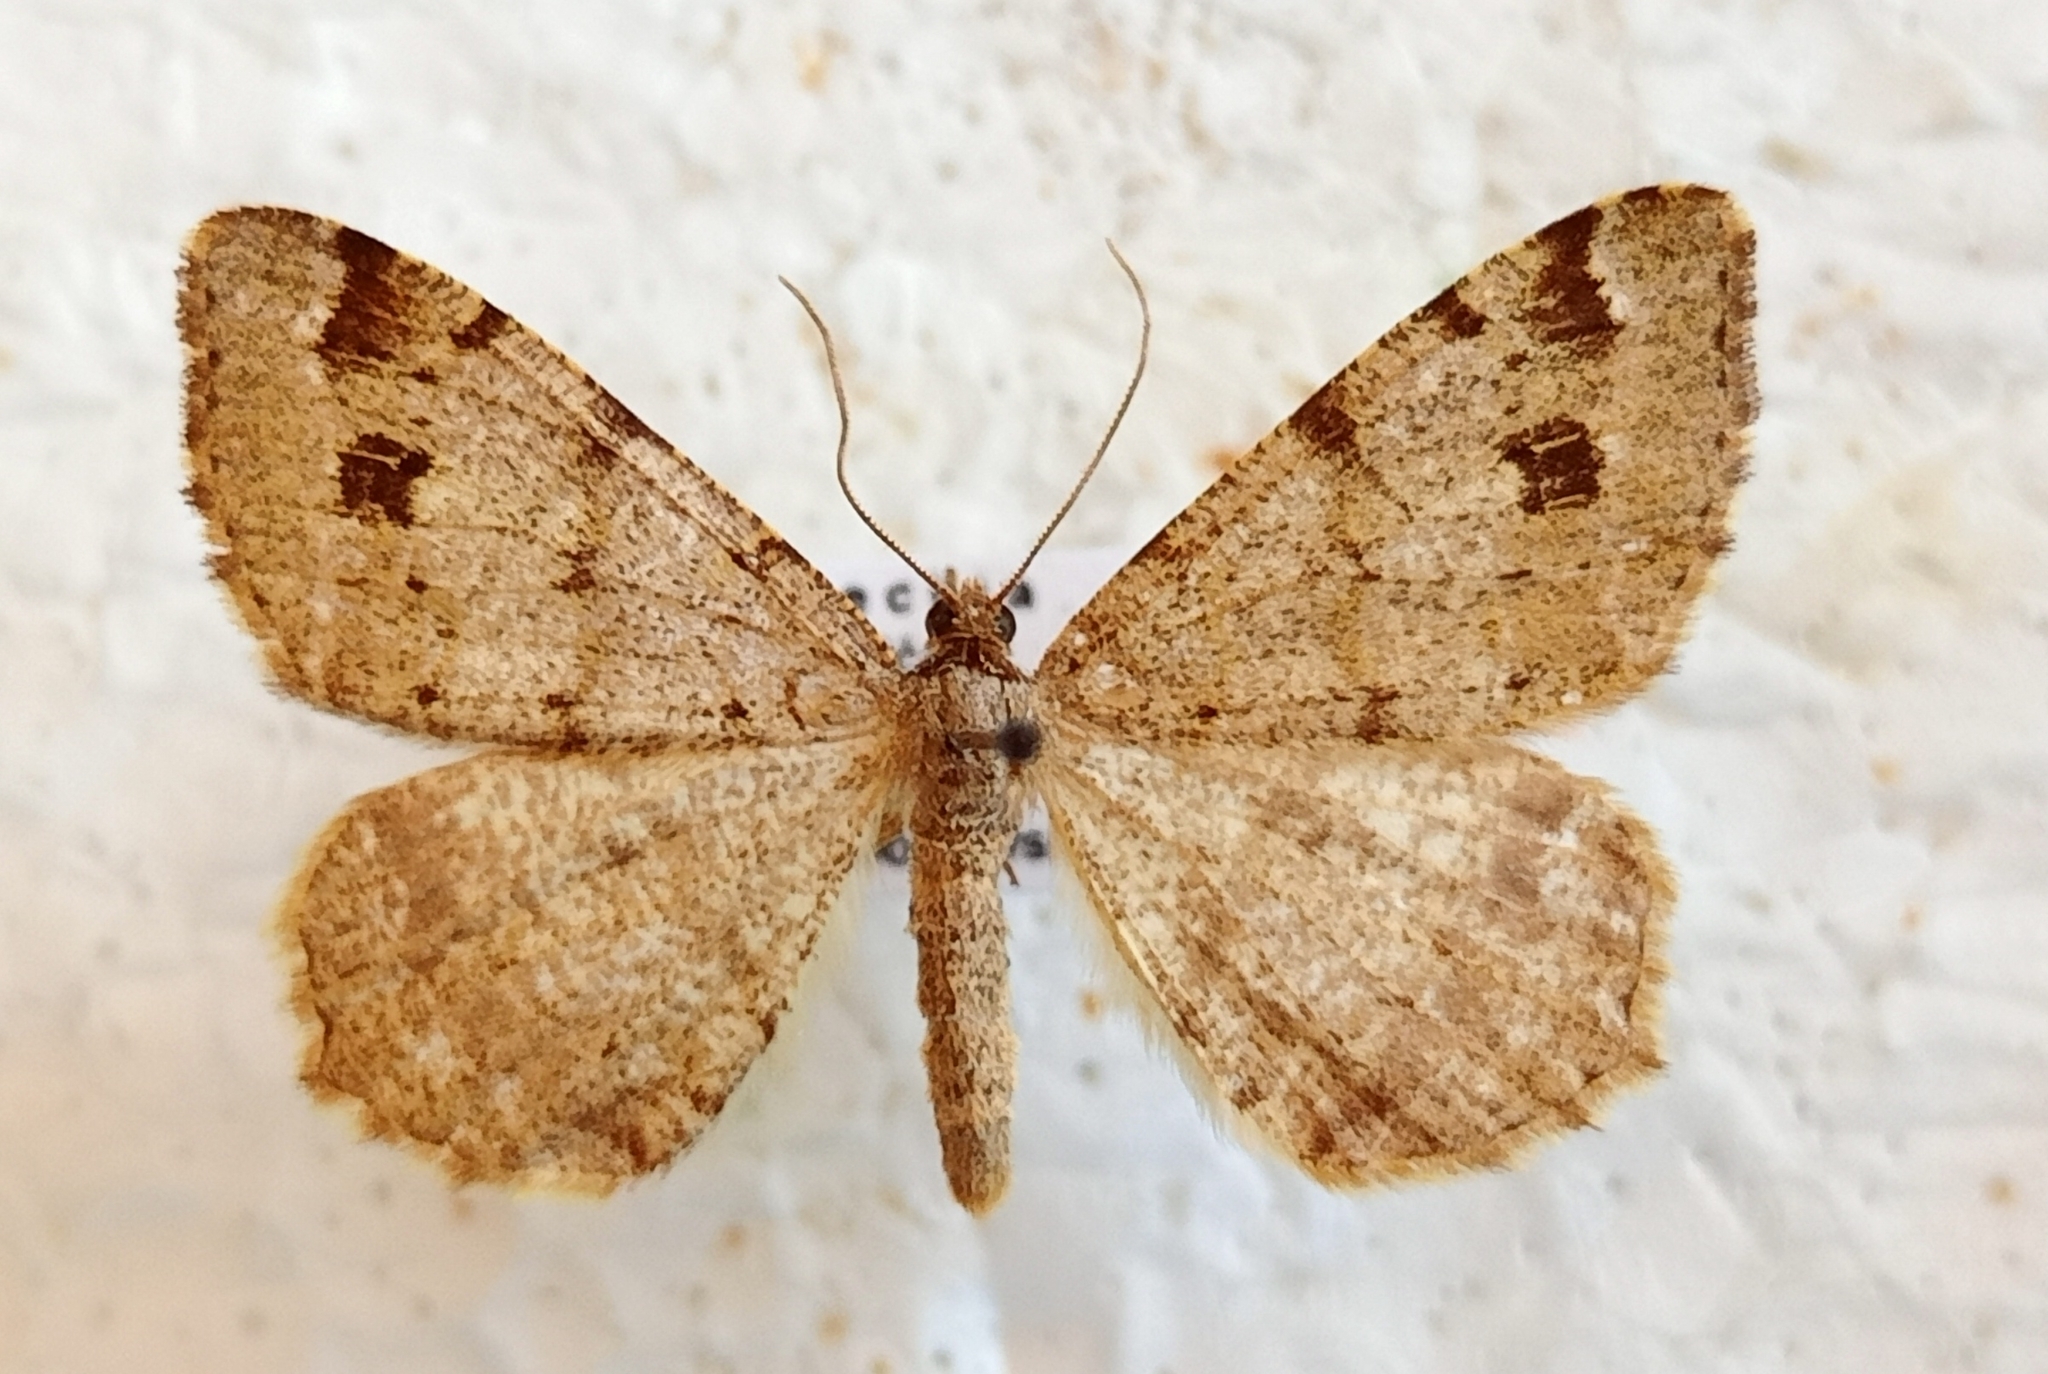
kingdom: Animalia
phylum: Arthropoda
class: Insecta
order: Lepidoptera
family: Geometridae
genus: Macaria
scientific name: Macaria signaria
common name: Dusky peacock
